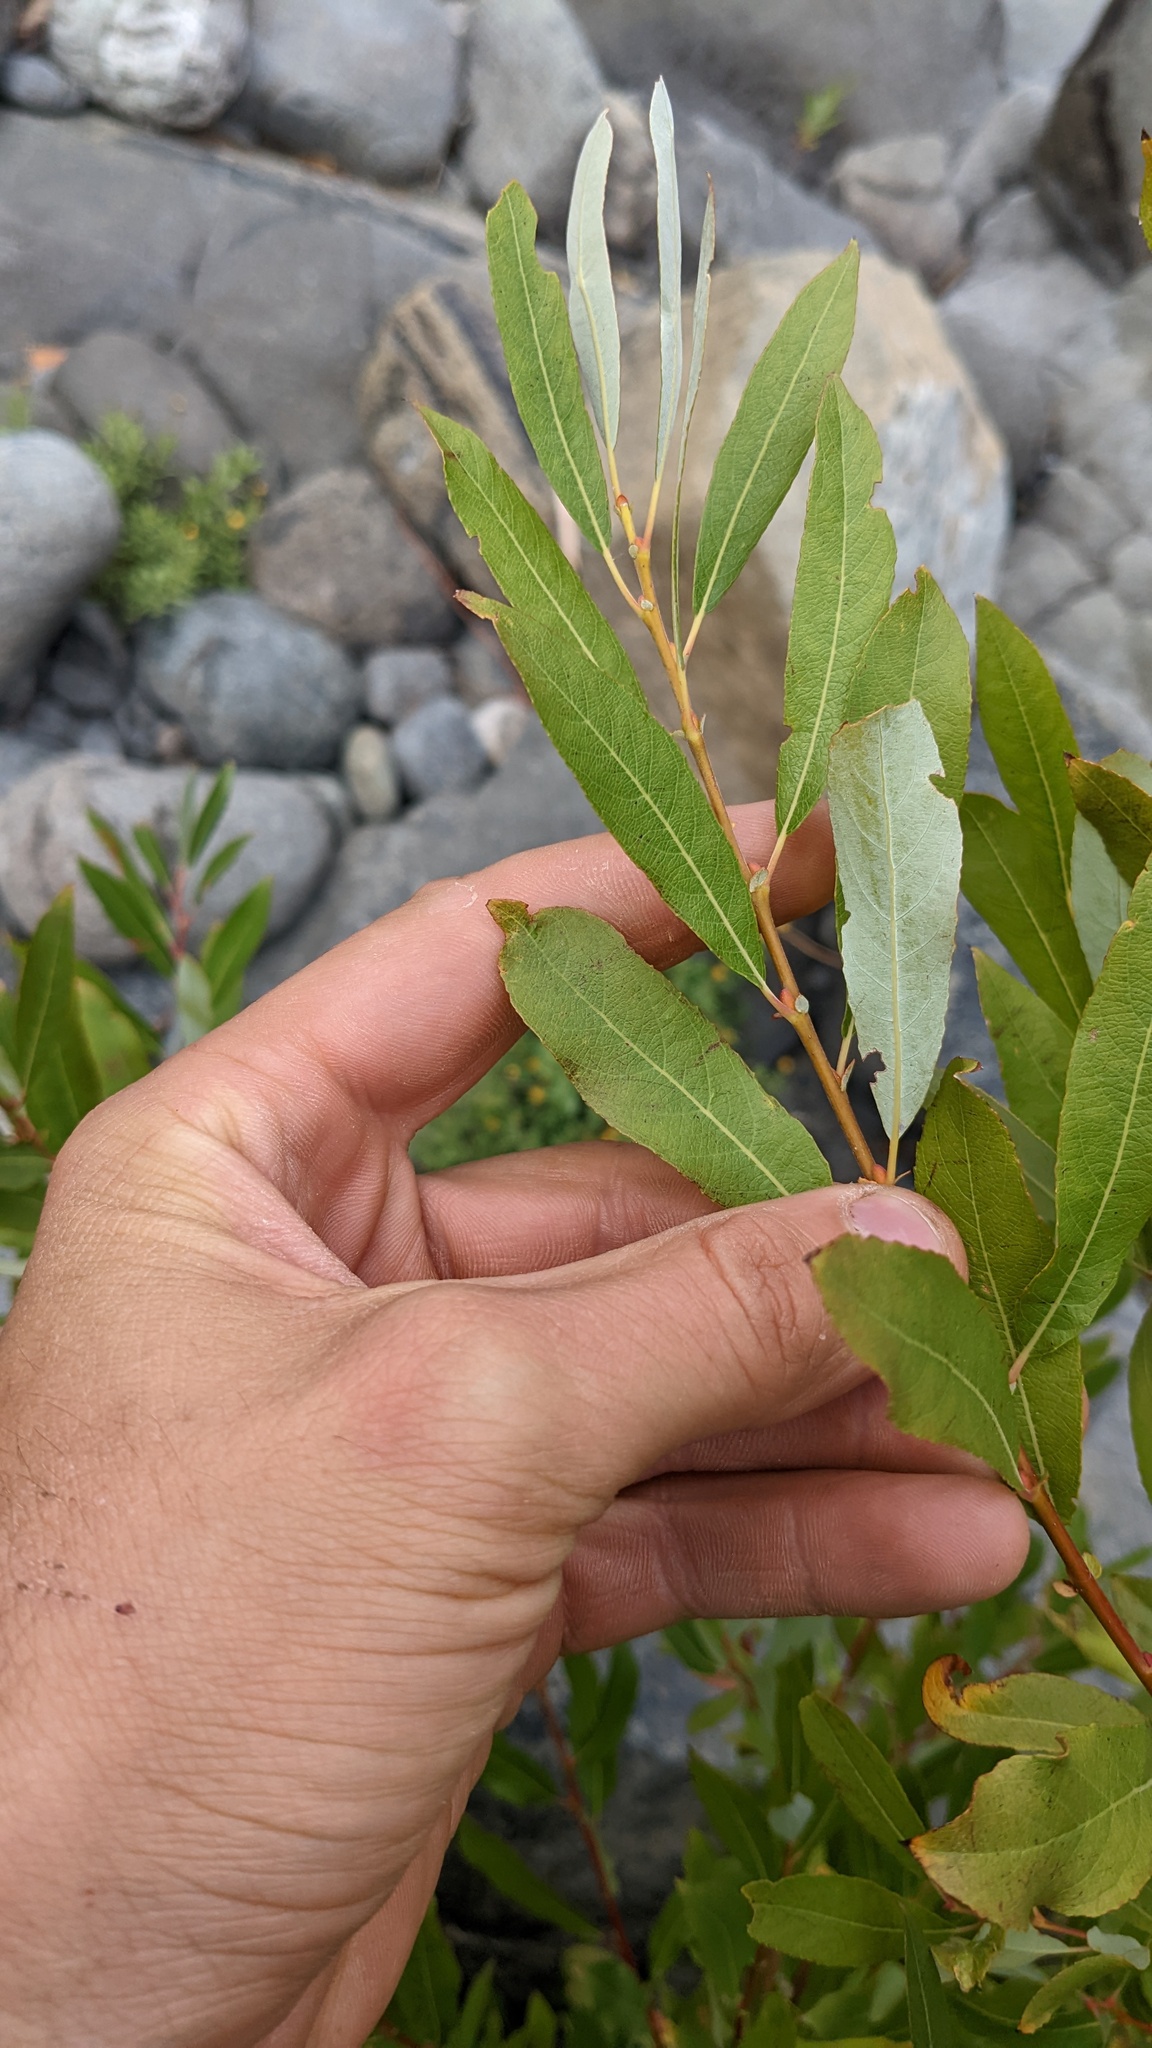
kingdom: Plantae
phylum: Tracheophyta
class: Magnoliopsida
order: Malpighiales
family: Salicaceae
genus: Salix
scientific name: Salix lasiolepis
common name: Arroyo willow
